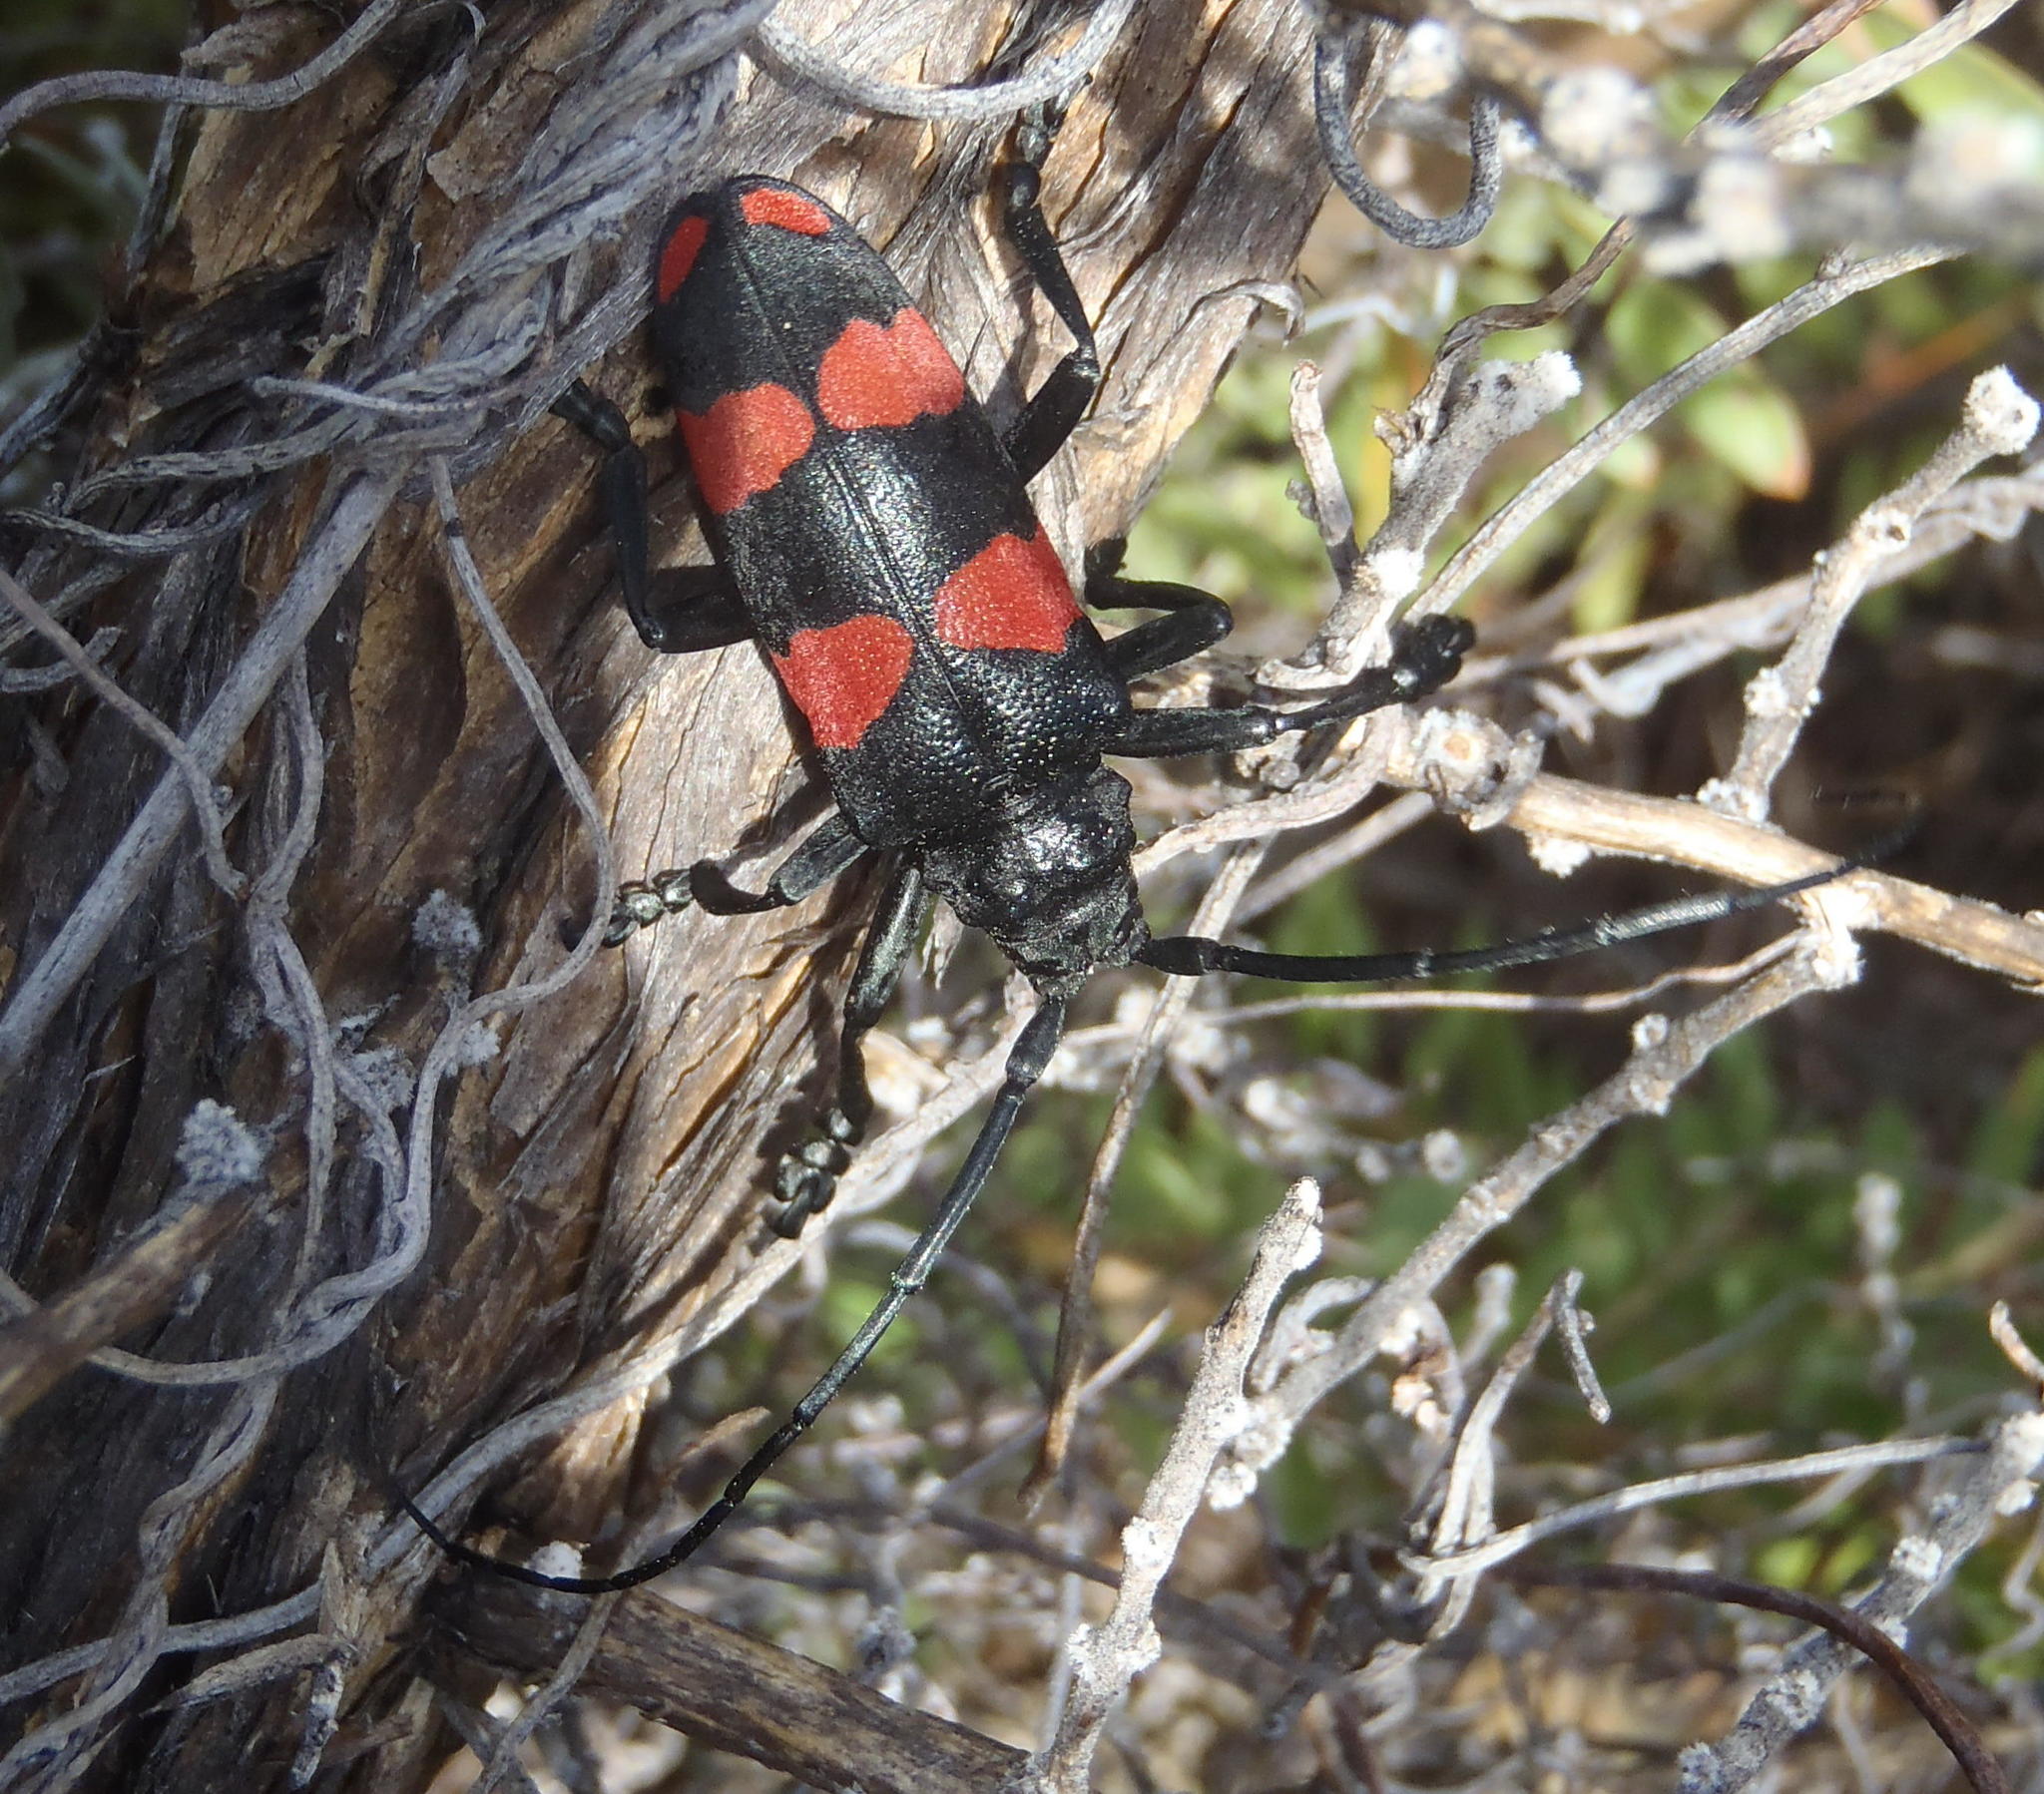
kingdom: Animalia
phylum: Arthropoda
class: Insecta
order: Coleoptera
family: Cerambycidae
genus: Ceroplesis
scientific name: Ceroplesis aethiops
